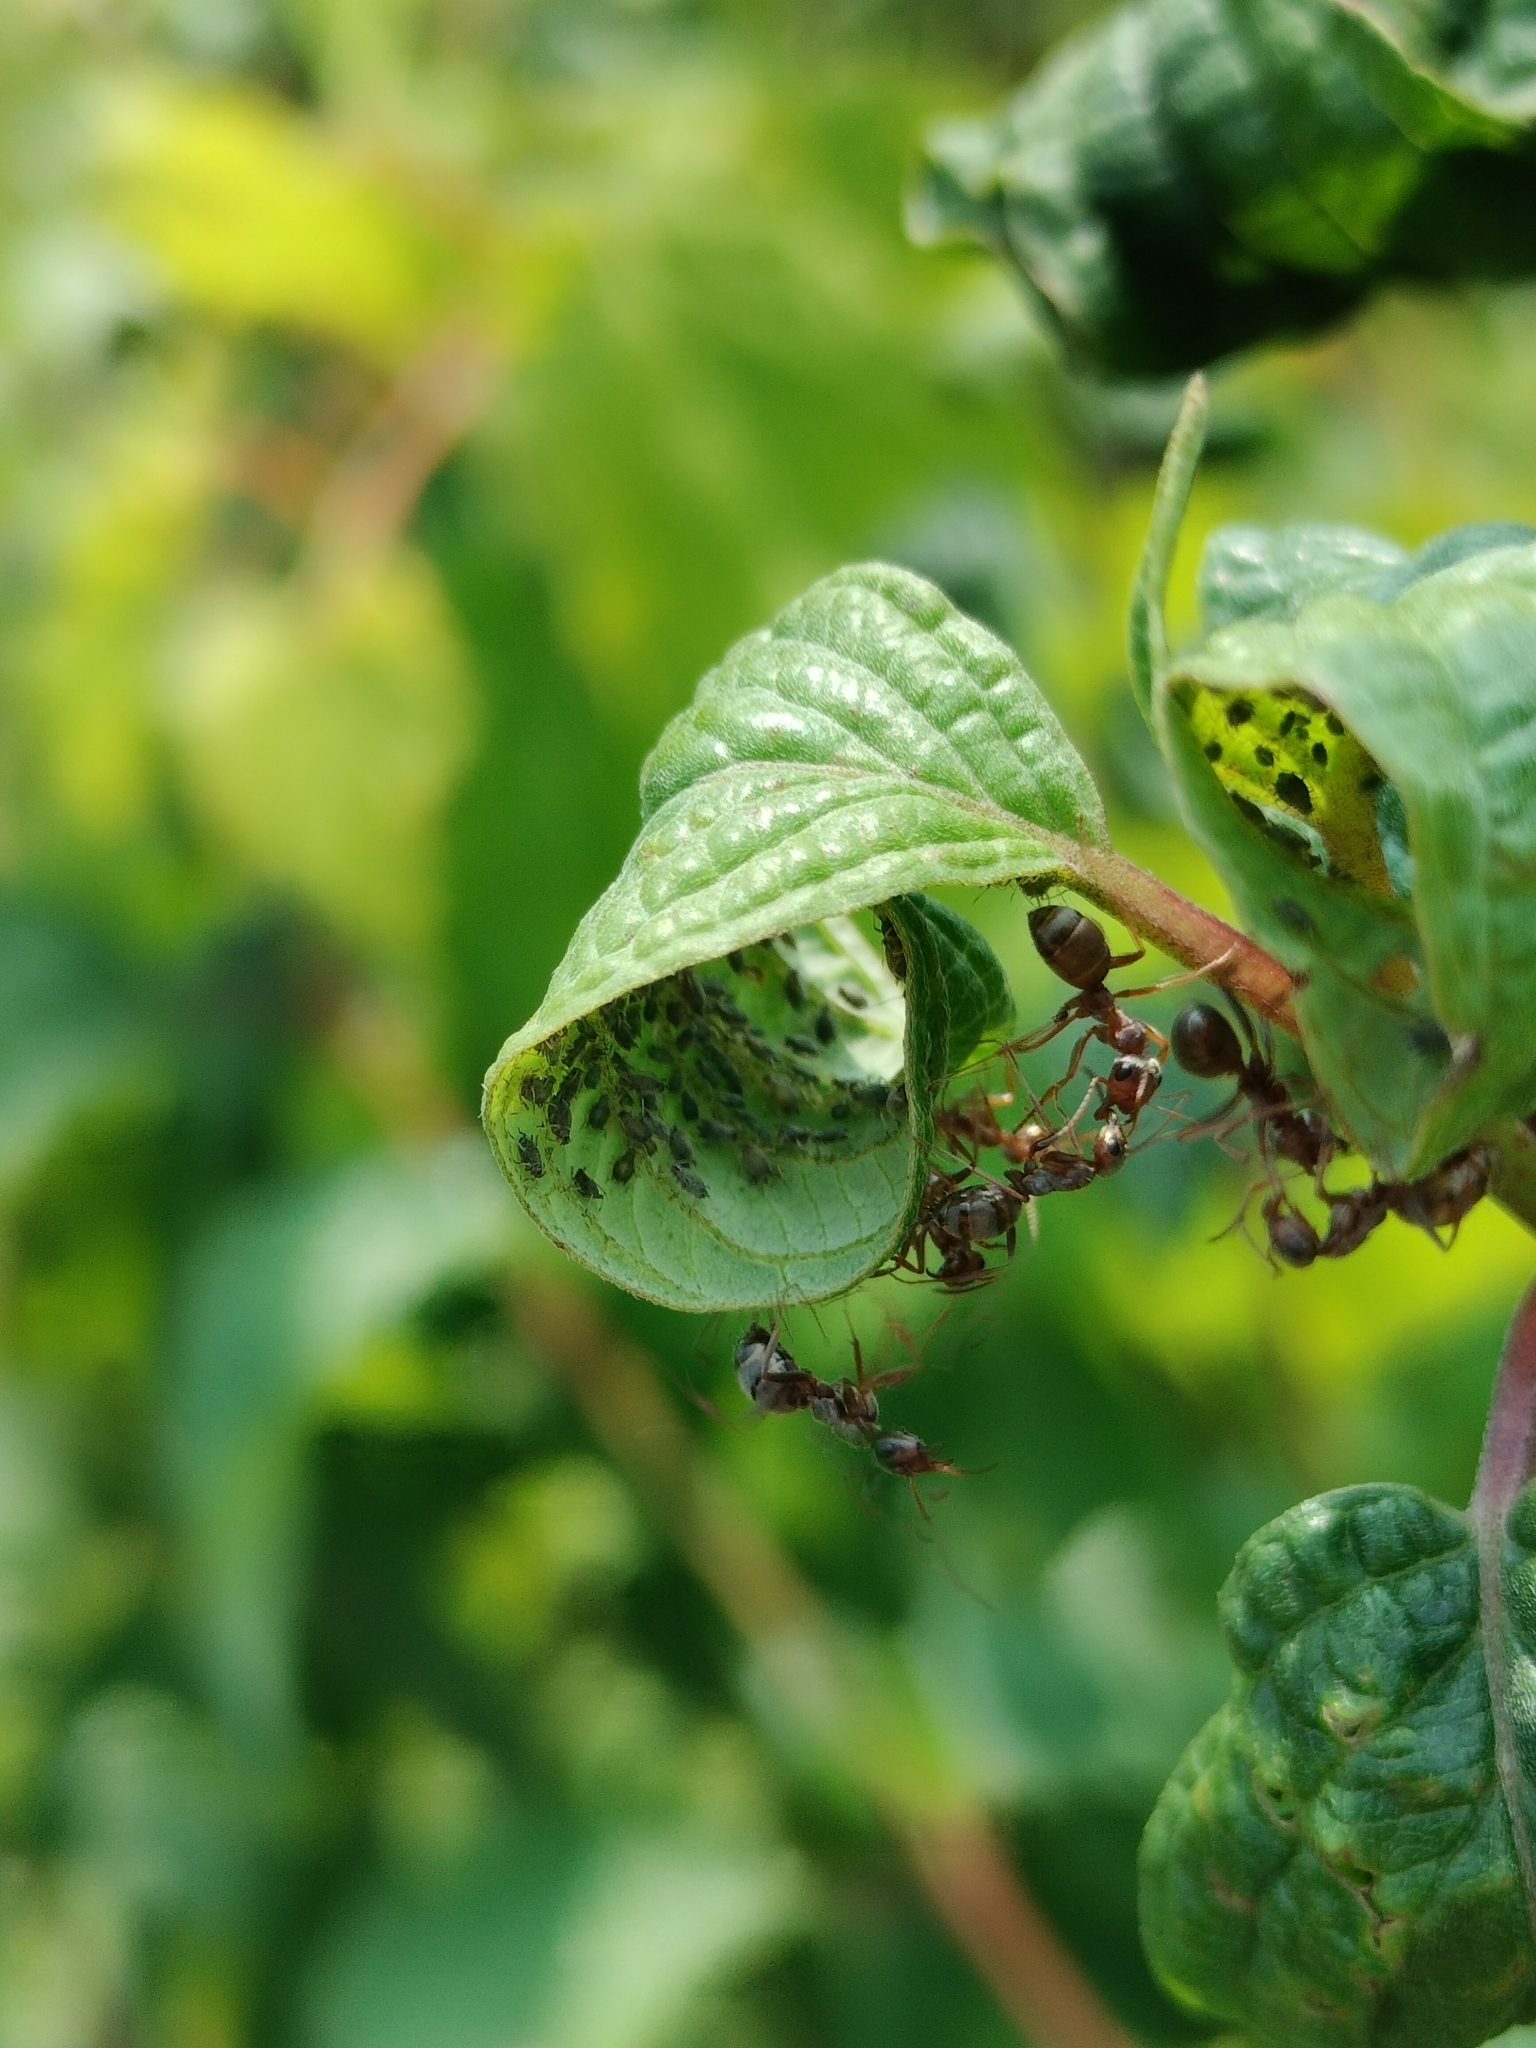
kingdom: Animalia
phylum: Arthropoda
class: Insecta
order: Hymenoptera
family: Formicidae
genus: Formica
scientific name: Formica montana
